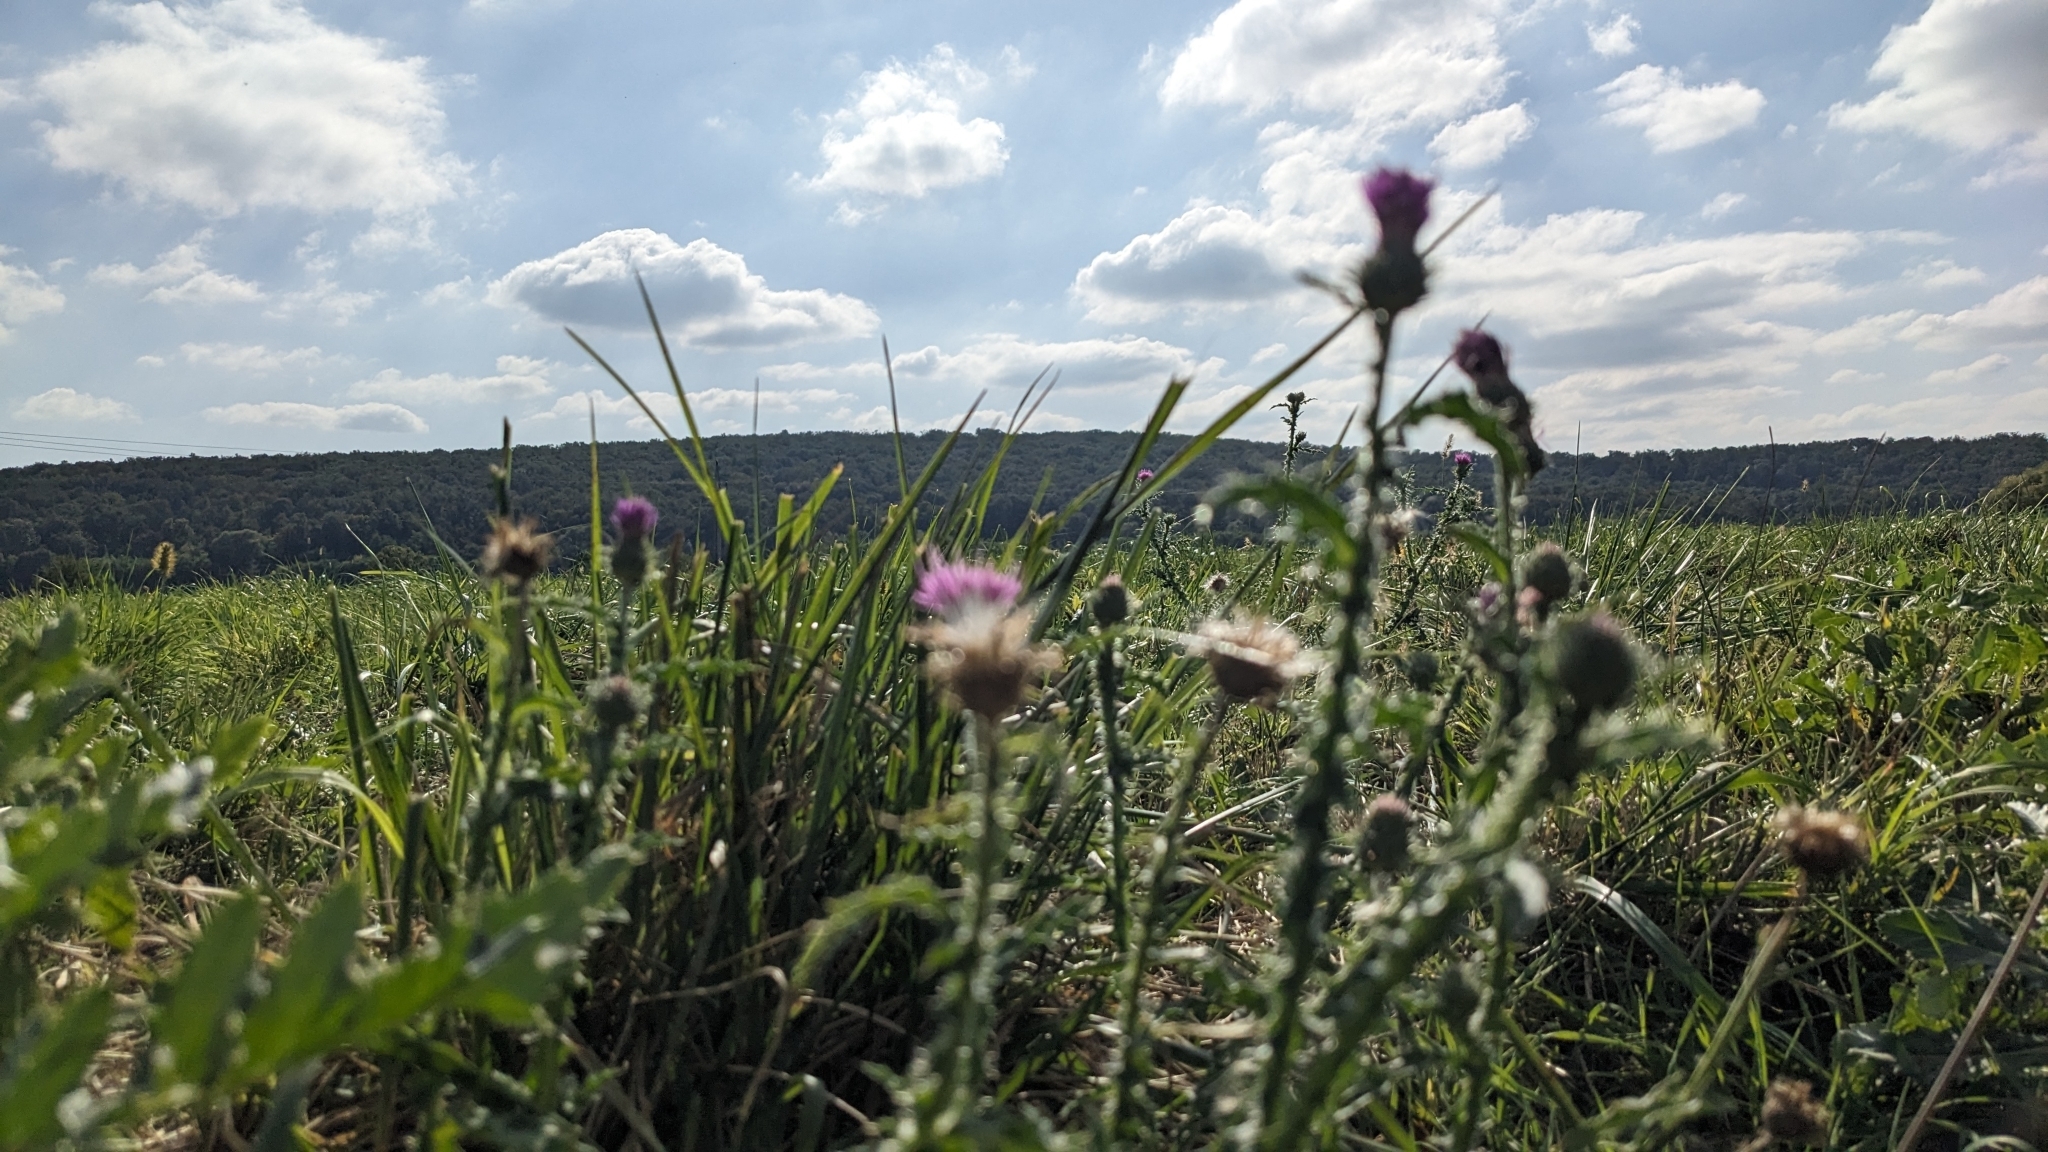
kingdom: Plantae
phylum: Tracheophyta
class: Magnoliopsida
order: Asterales
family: Asteraceae
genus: Carduus
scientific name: Carduus acanthoides
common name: Plumeless thistle
